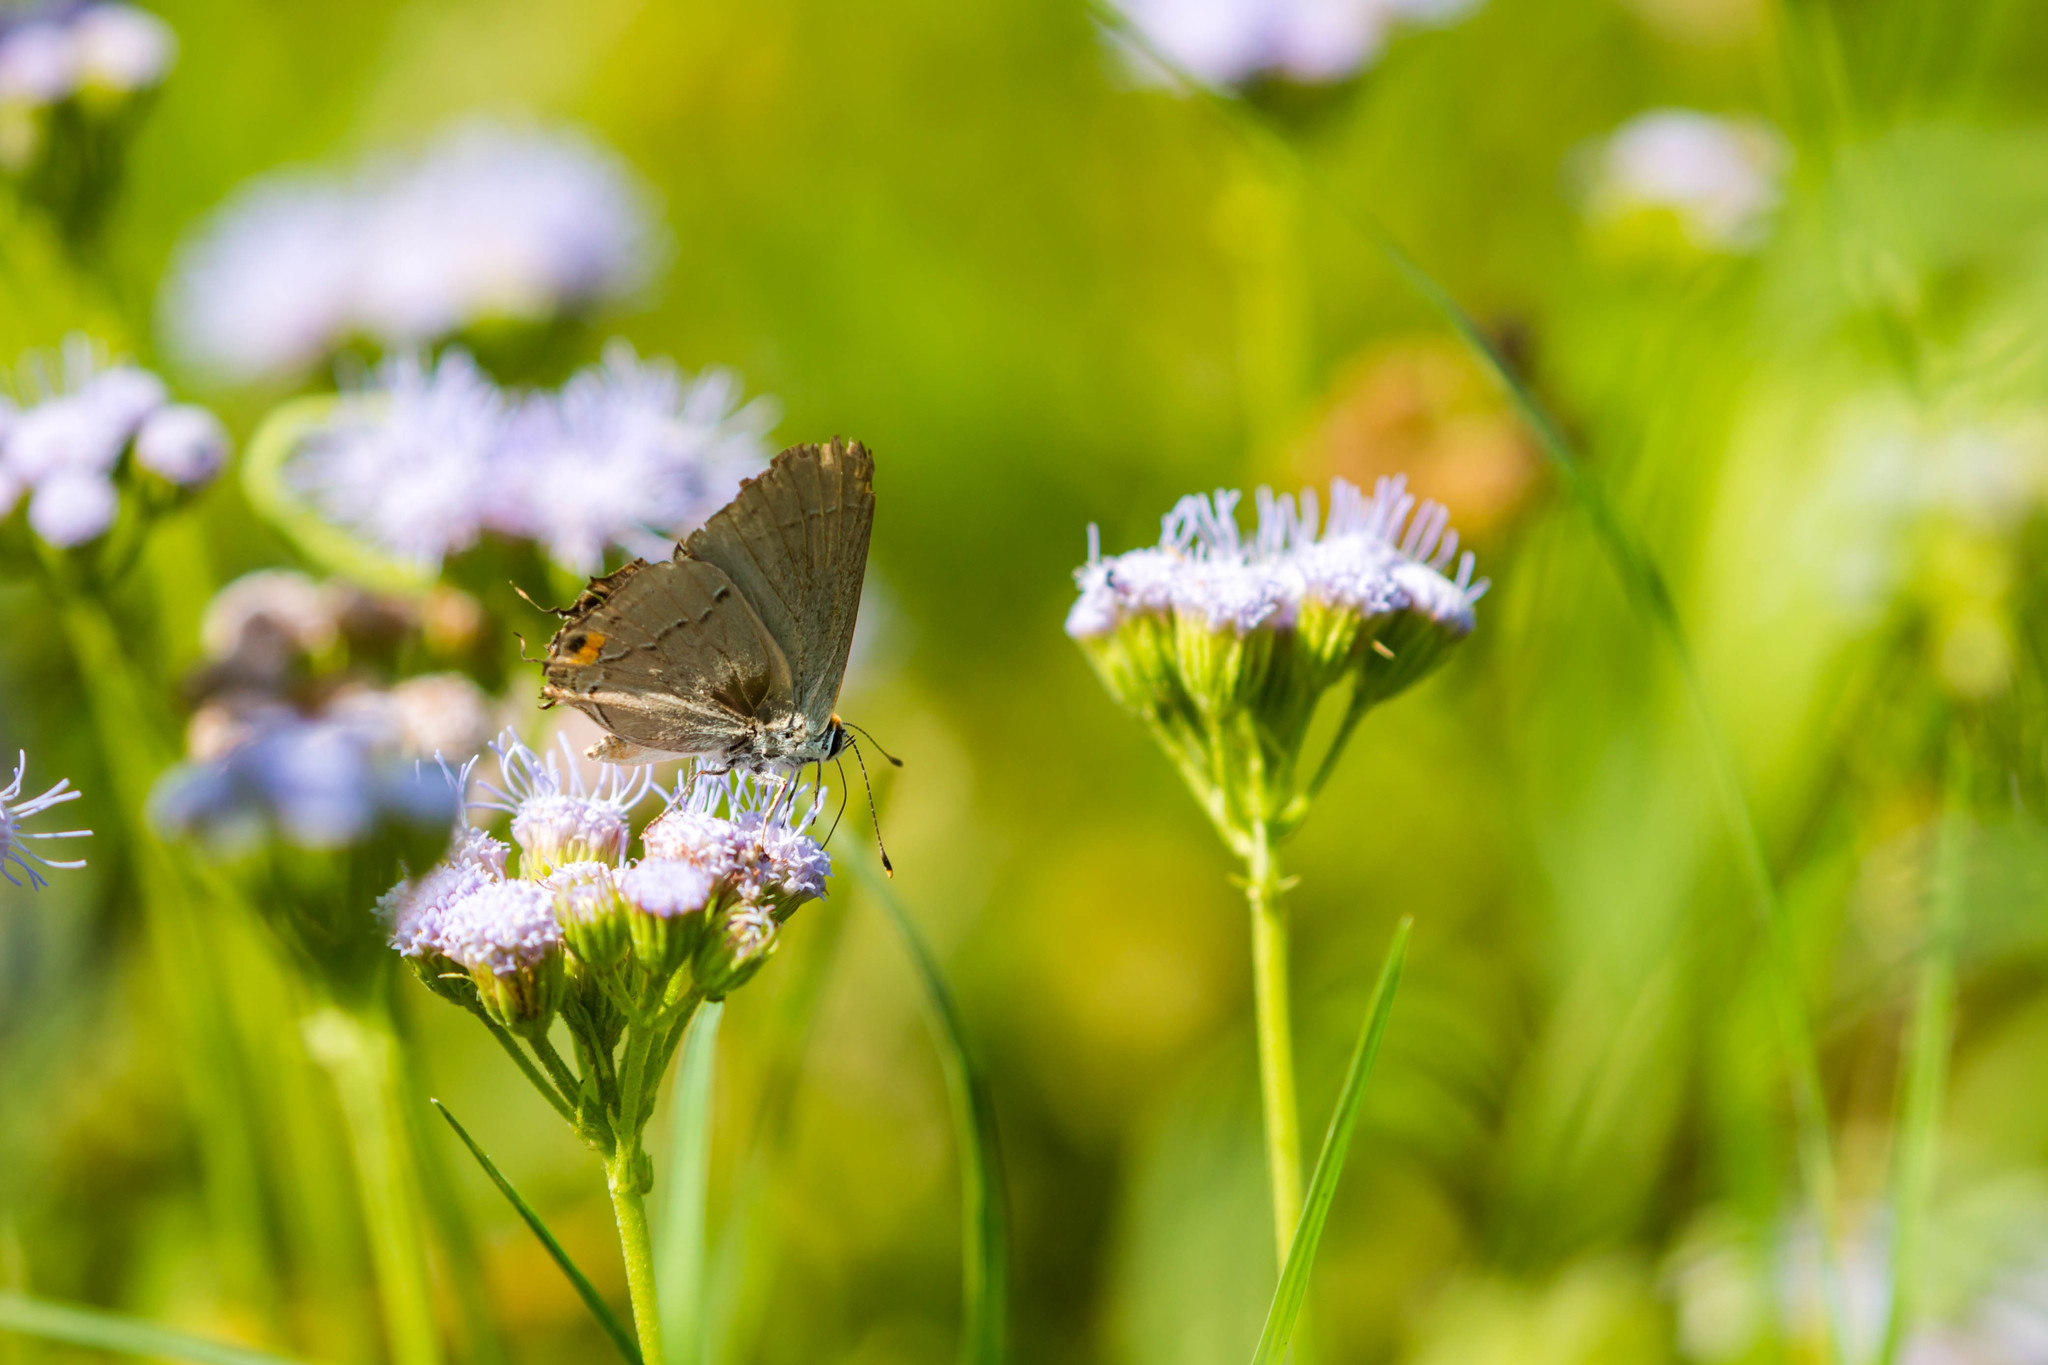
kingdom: Animalia
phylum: Arthropoda
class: Insecta
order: Lepidoptera
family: Lycaenidae
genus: Strymon
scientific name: Strymon melinus
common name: Gray hairstreak
